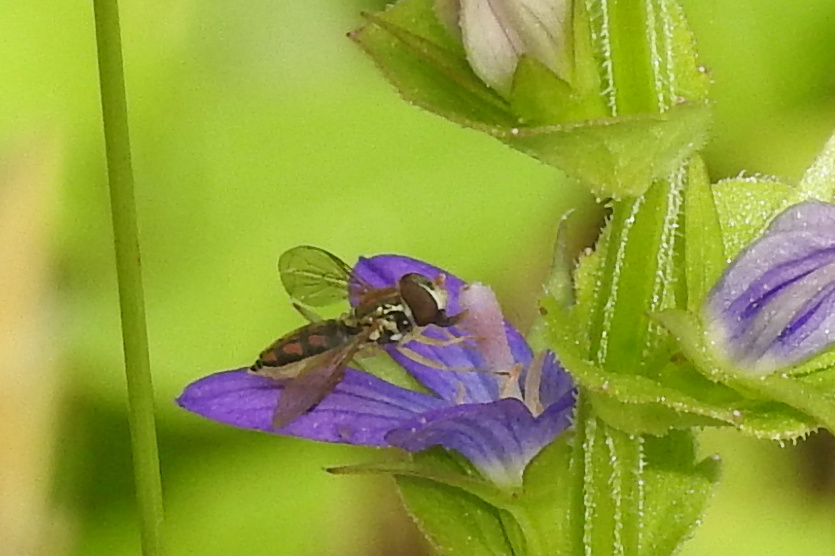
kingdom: Animalia
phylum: Arthropoda
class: Insecta
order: Diptera
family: Syrphidae
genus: Toxomerus
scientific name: Toxomerus marginatus
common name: Syrphid fly
